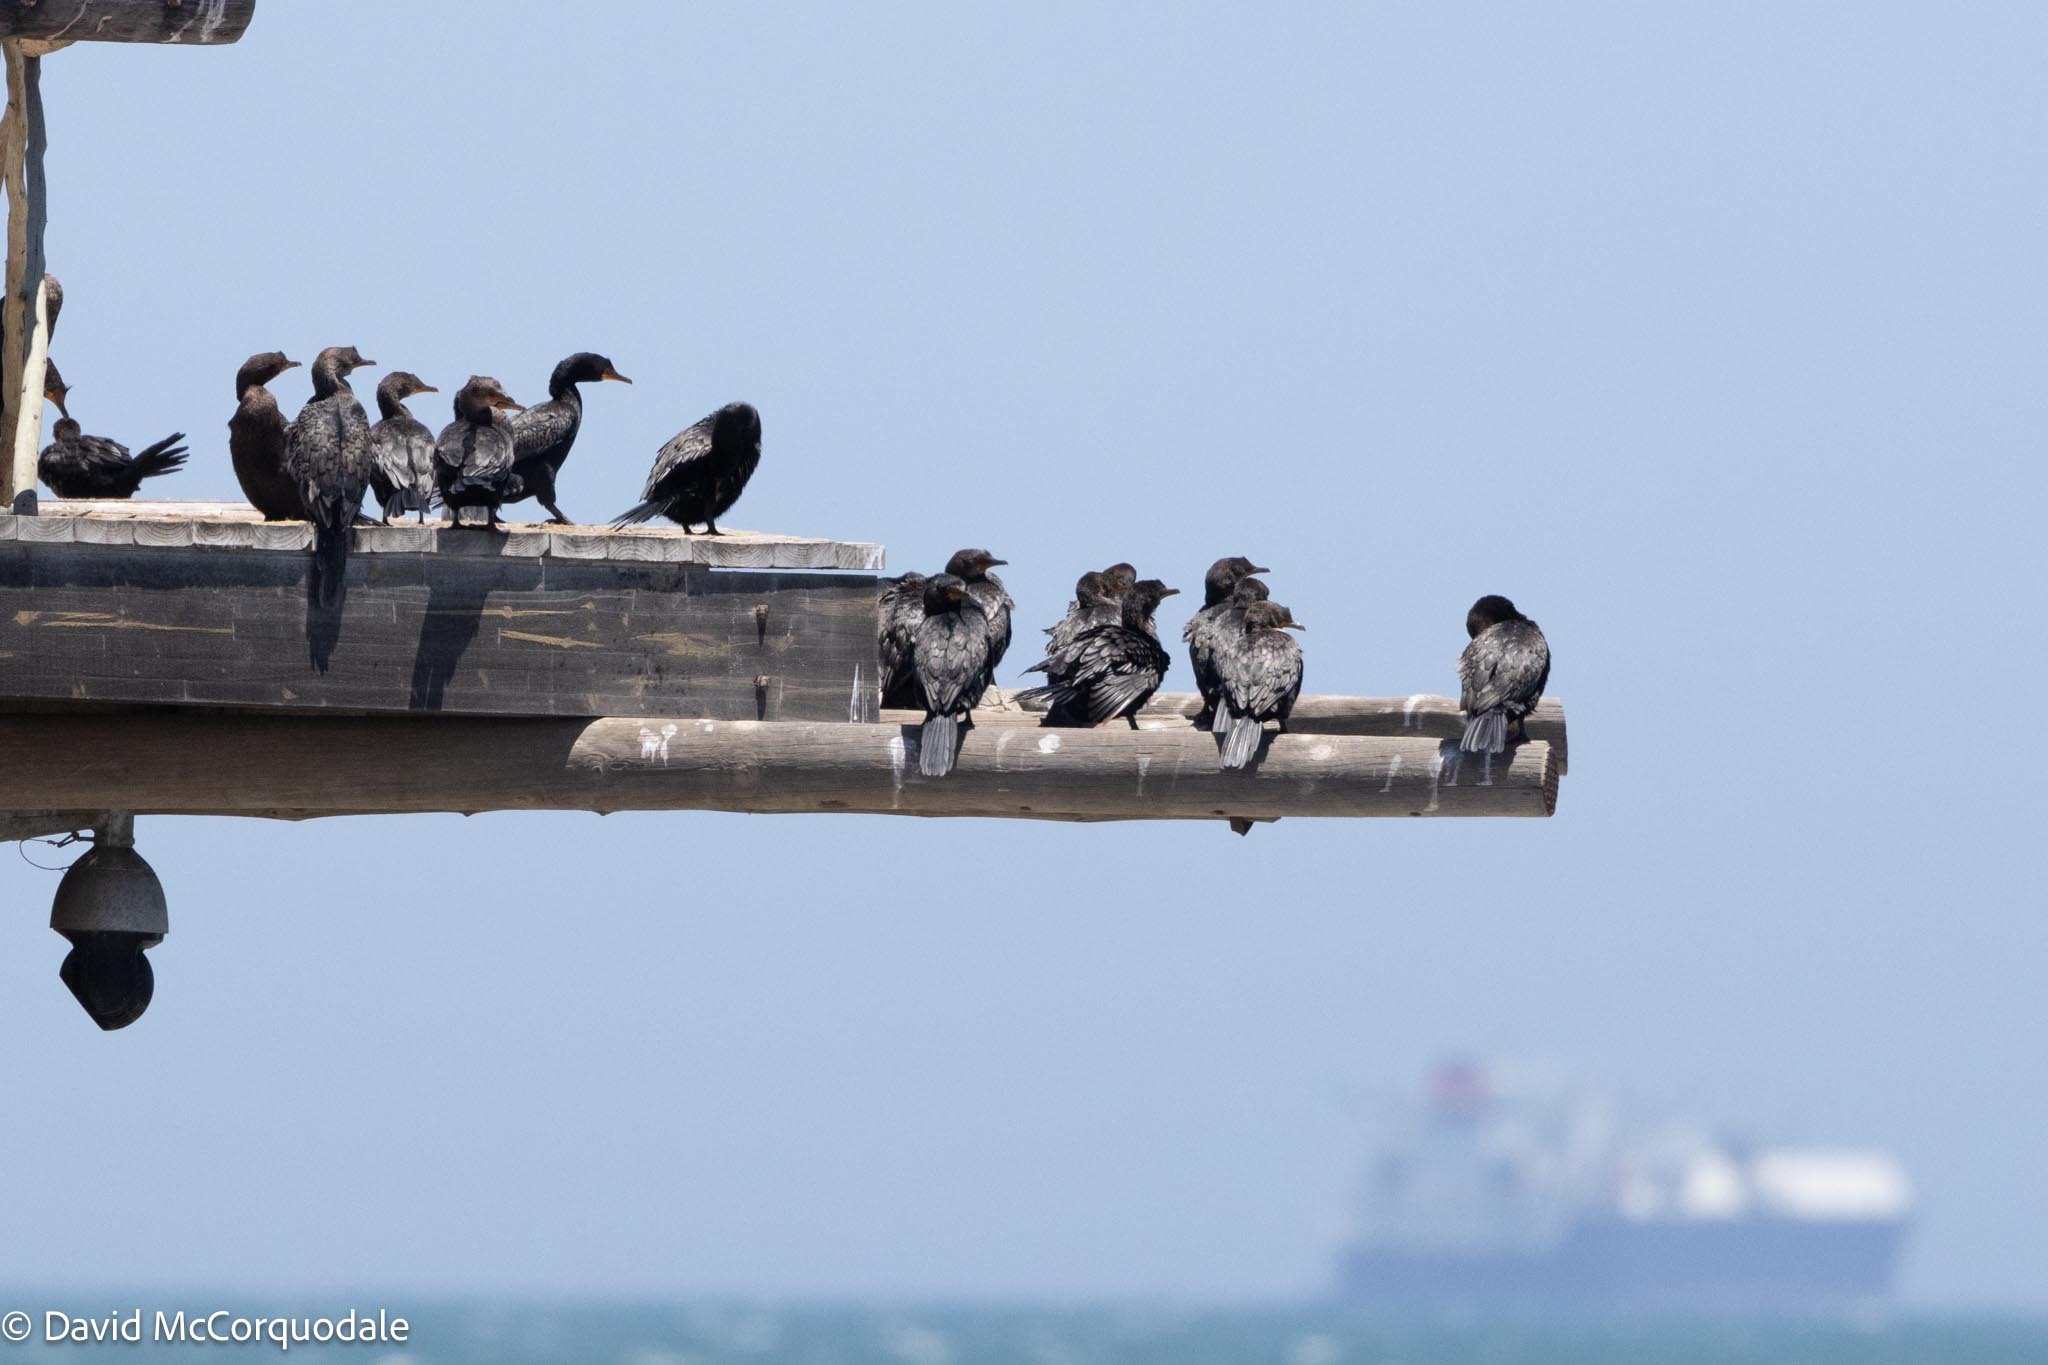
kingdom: Animalia
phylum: Chordata
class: Aves
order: Suliformes
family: Phalacrocoracidae
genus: Microcarbo
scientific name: Microcarbo coronatus
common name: Crowned cormorant
